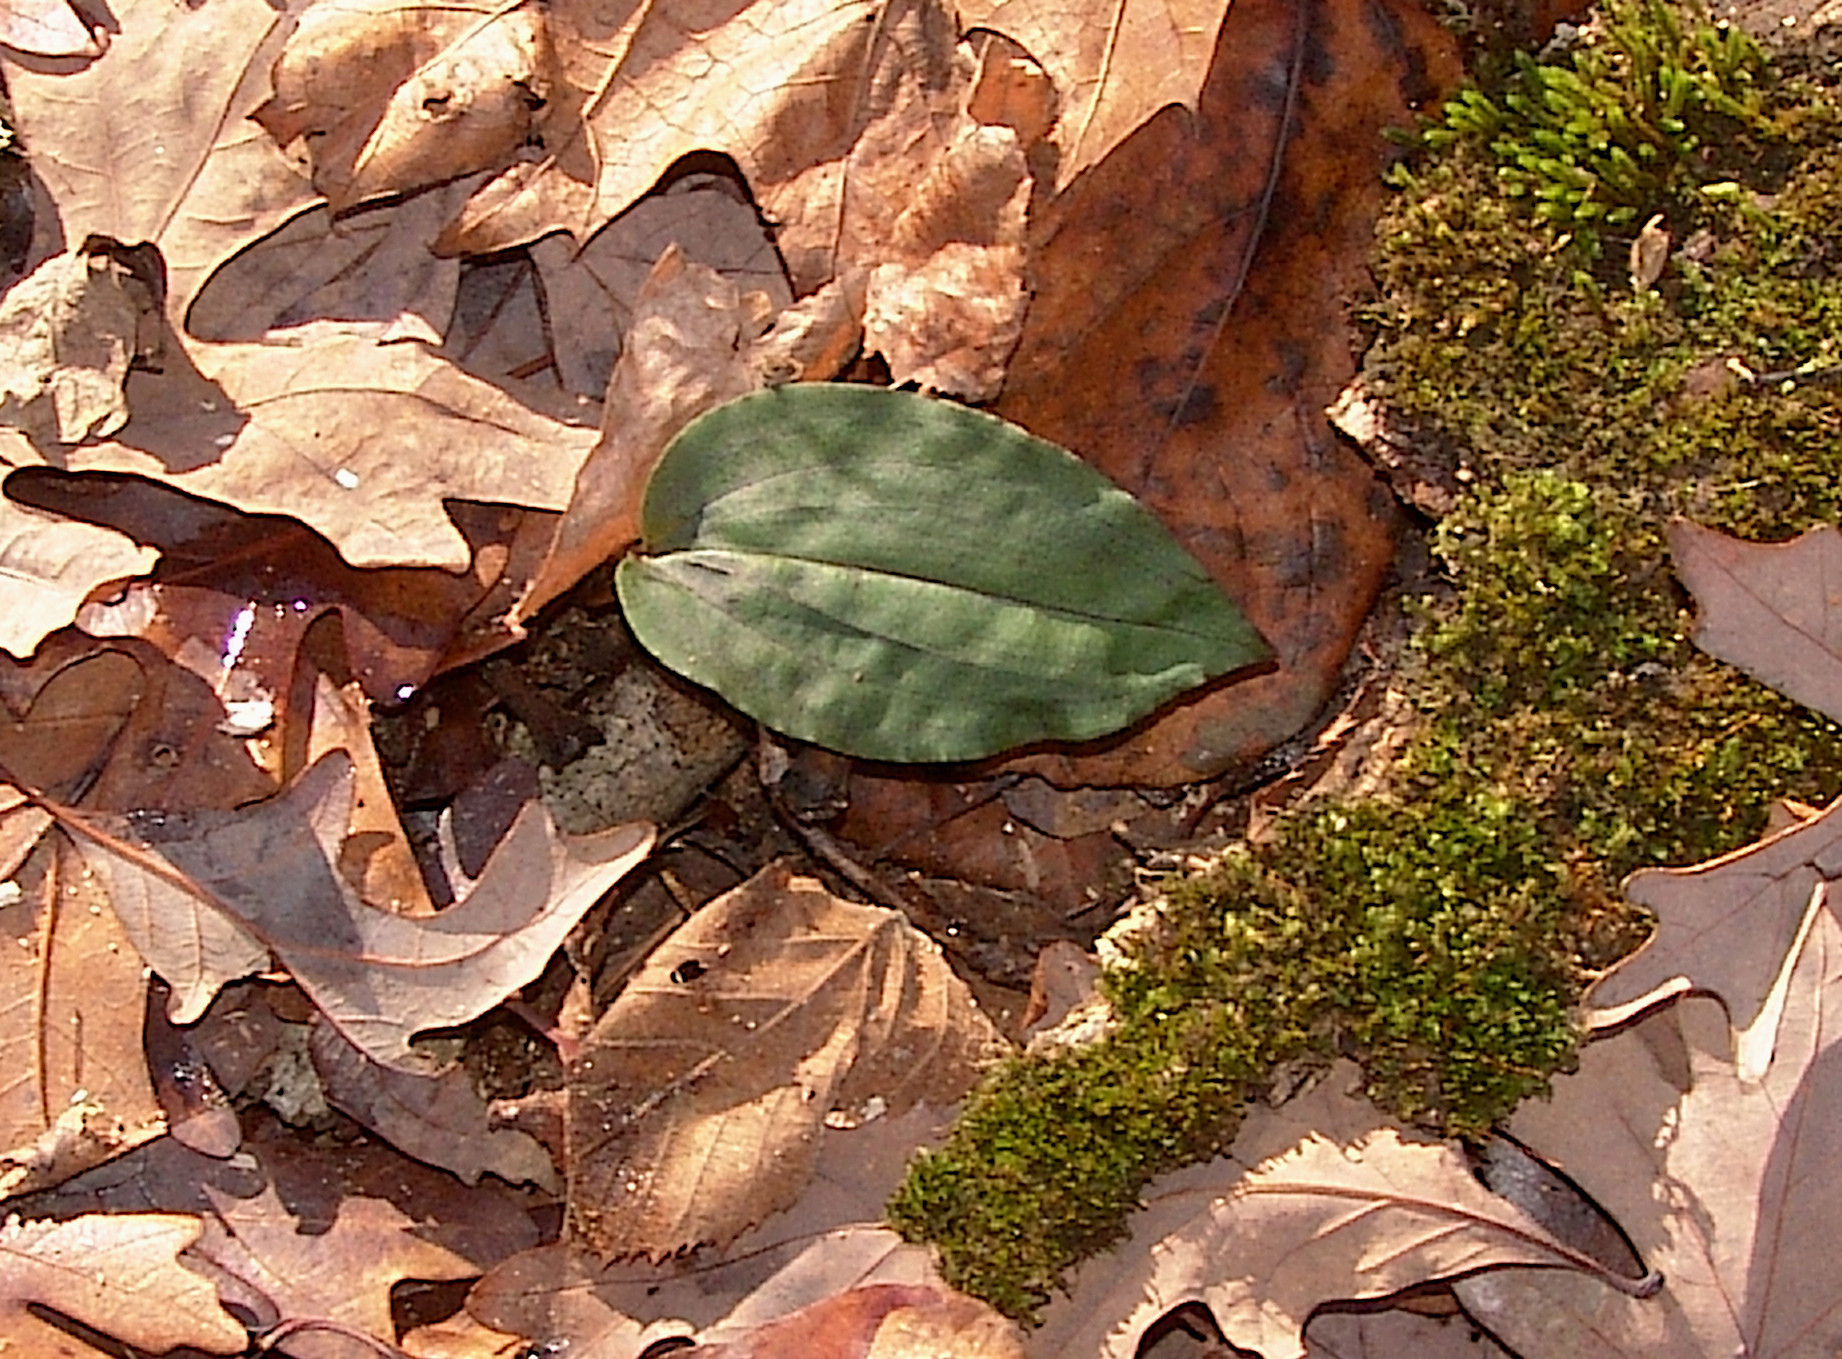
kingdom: Plantae
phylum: Tracheophyta
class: Liliopsida
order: Asparagales
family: Orchidaceae
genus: Tipularia
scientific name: Tipularia discolor
